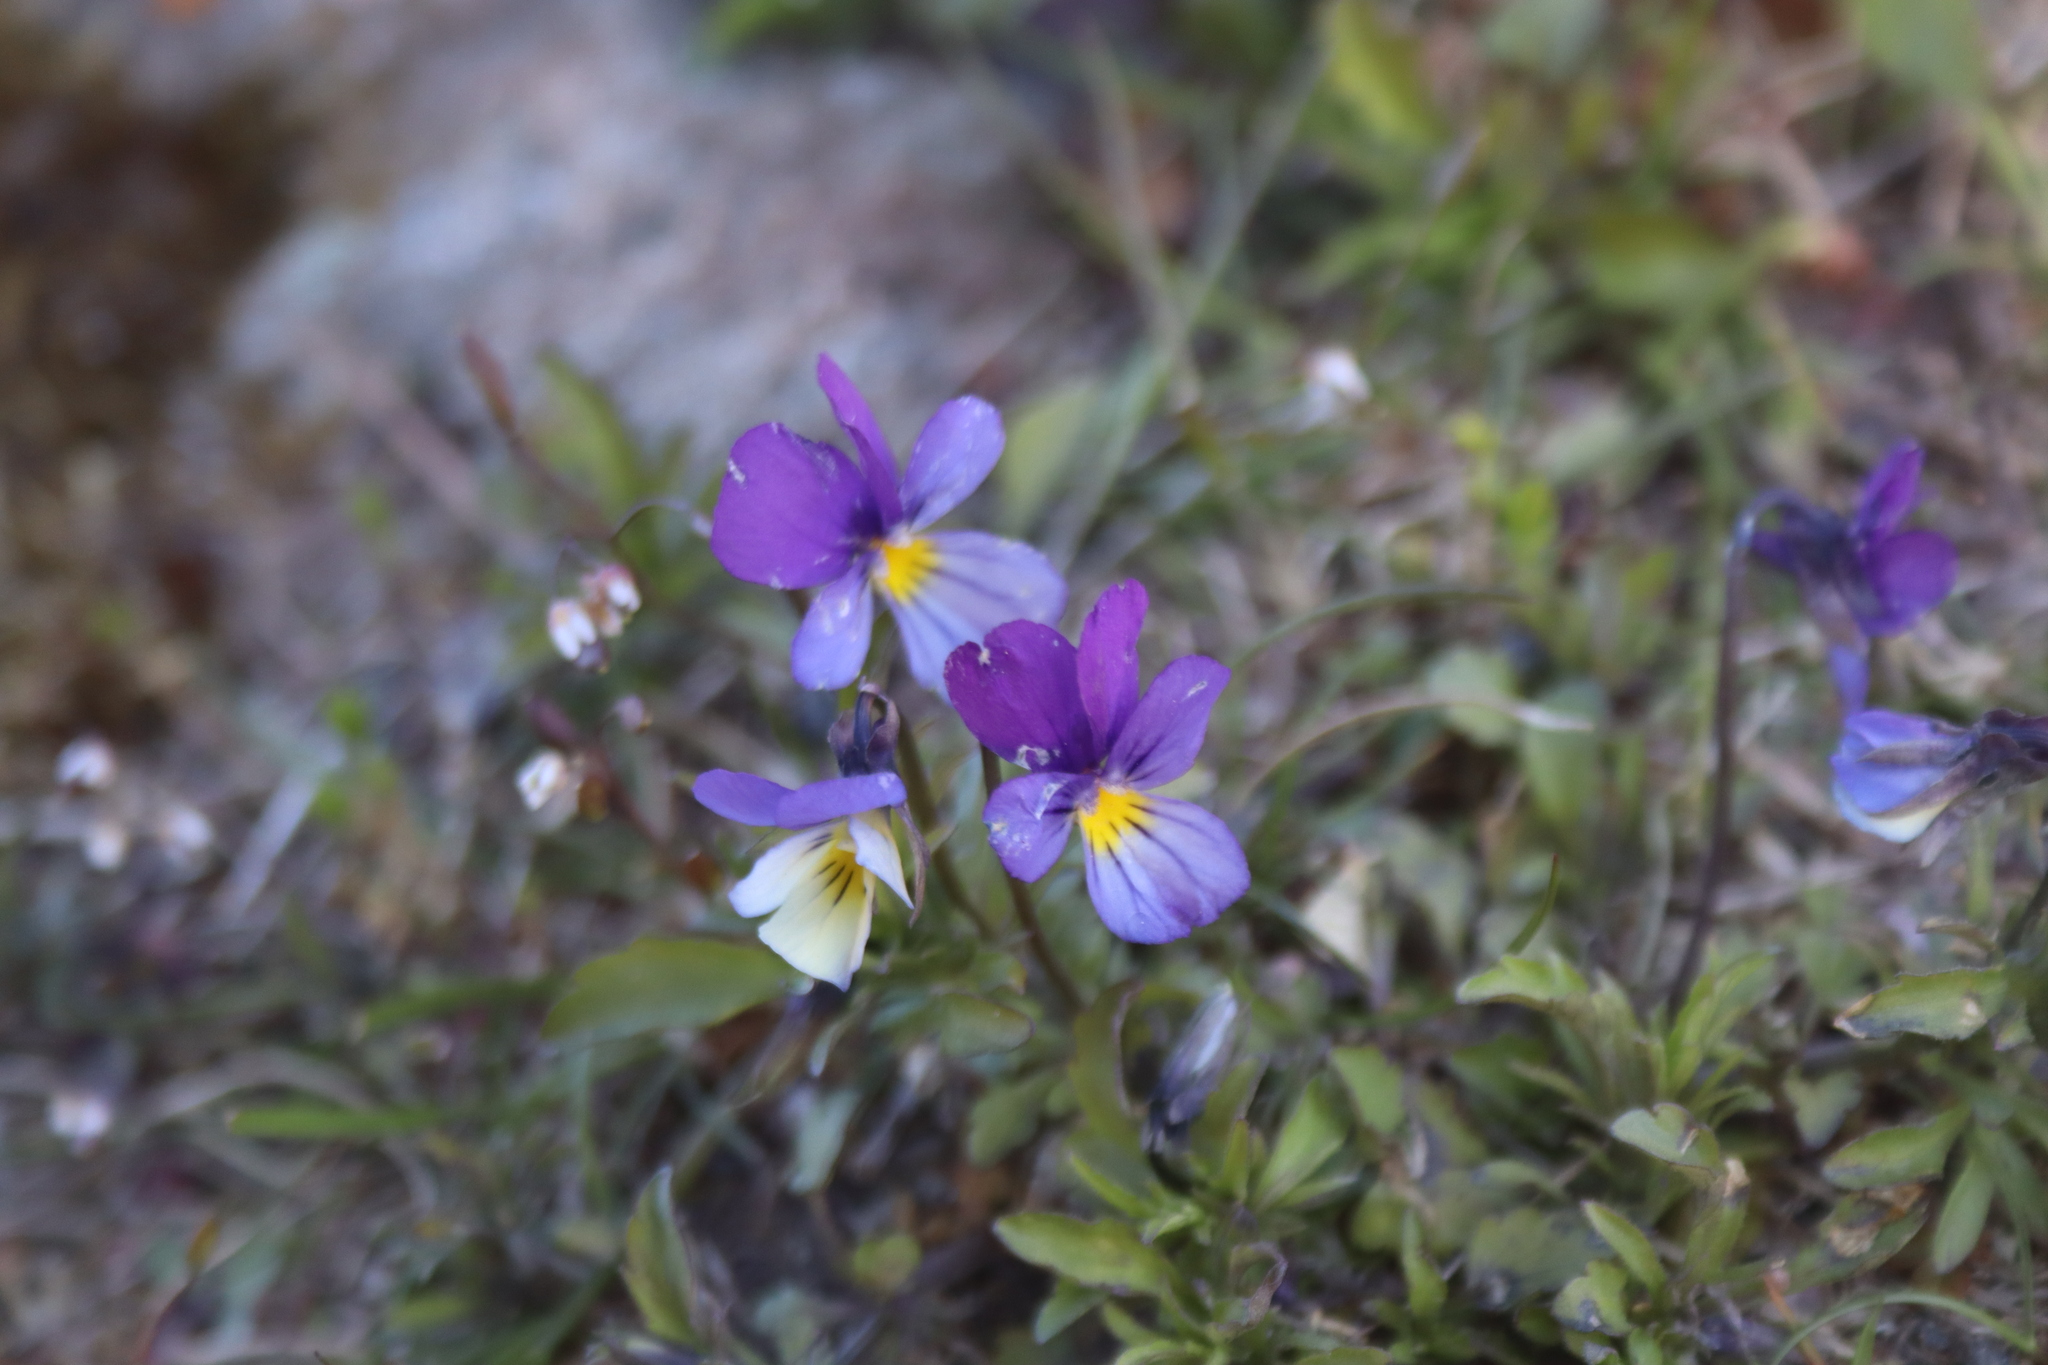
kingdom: Plantae
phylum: Tracheophyta
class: Magnoliopsida
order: Malpighiales
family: Violaceae
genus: Viola
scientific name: Viola tricolor
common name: Pansy
